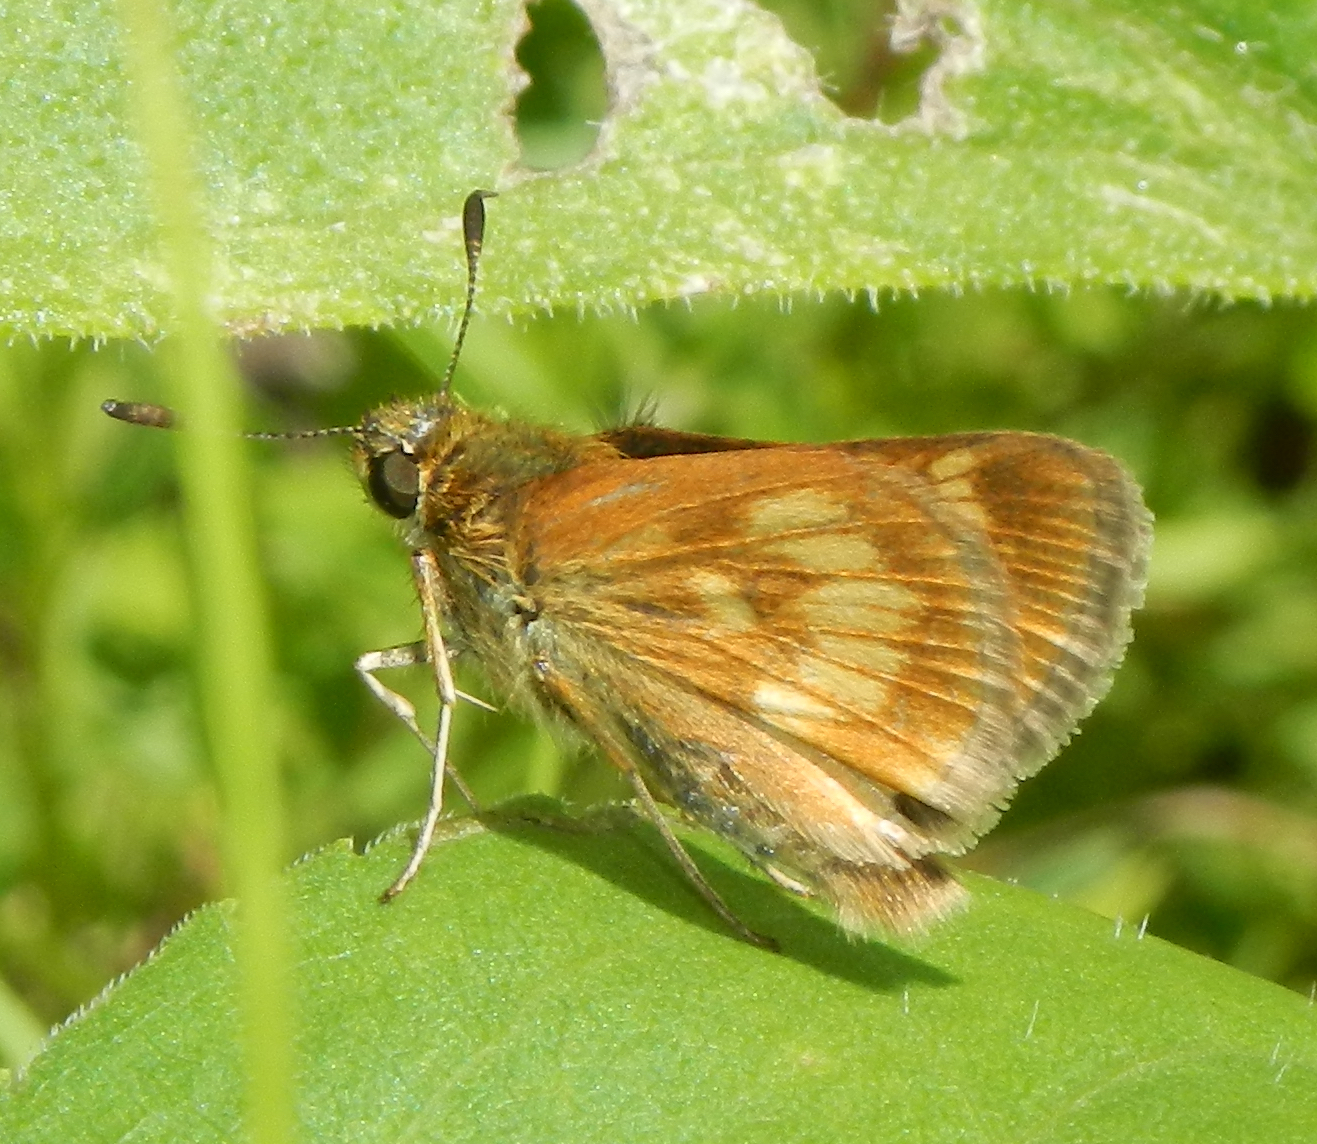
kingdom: Animalia
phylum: Arthropoda
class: Insecta
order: Lepidoptera
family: Hesperiidae
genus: Polites
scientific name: Polites mystic
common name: Long dash
